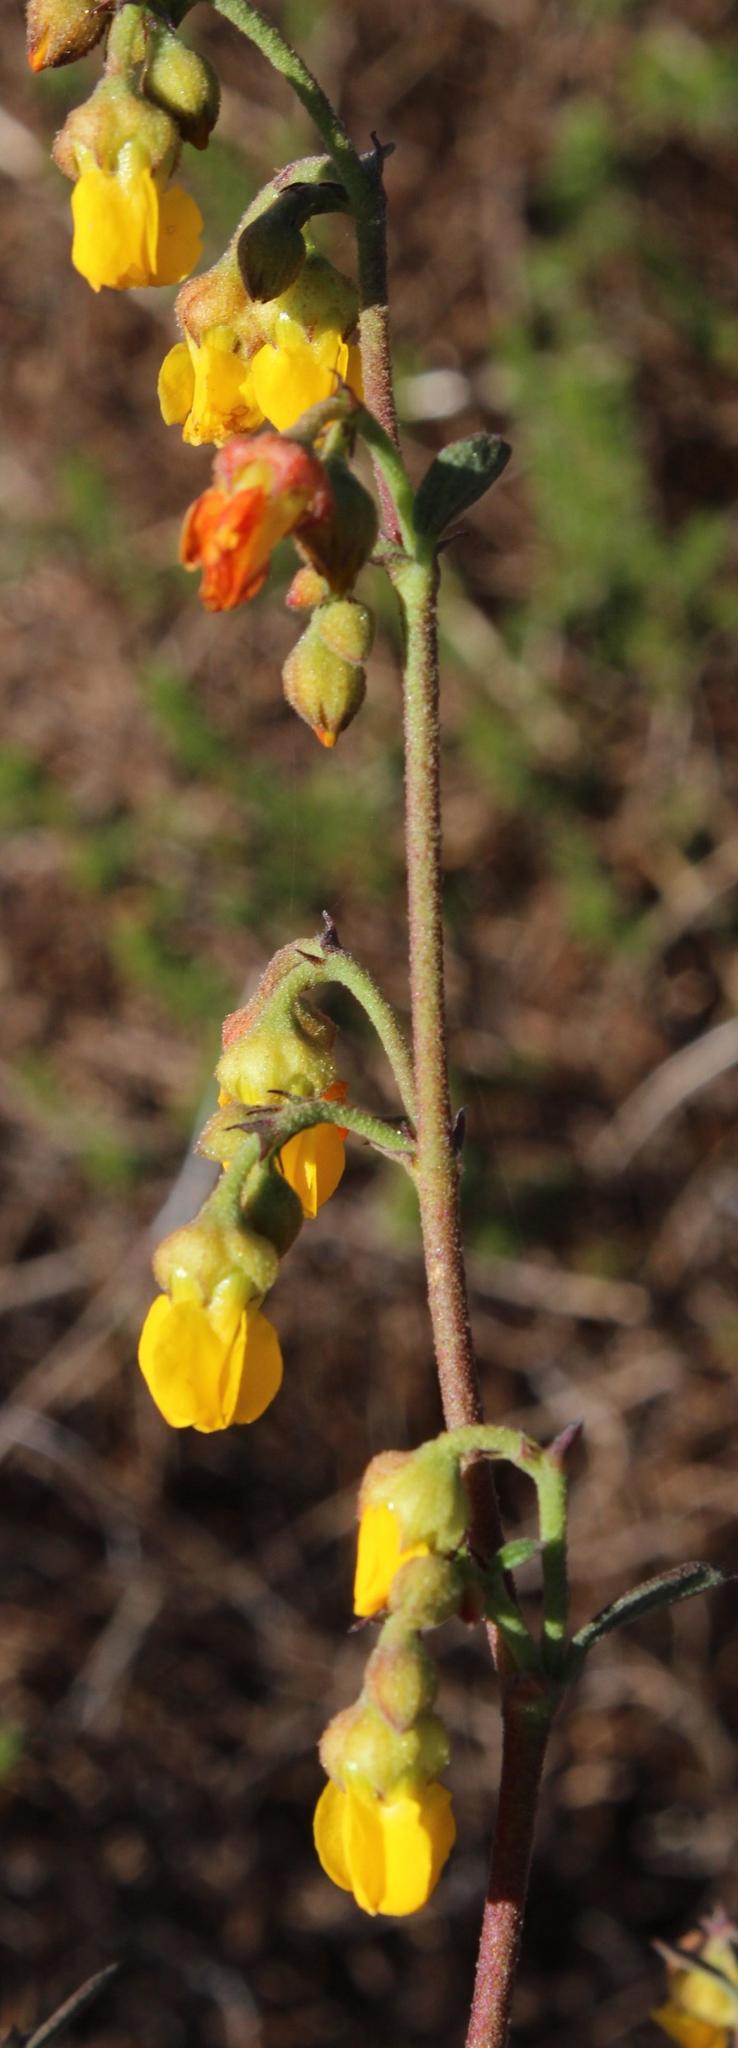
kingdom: Plantae
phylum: Tracheophyta
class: Magnoliopsida
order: Malvales
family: Malvaceae
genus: Hermannia
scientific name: Hermannia multiflora
